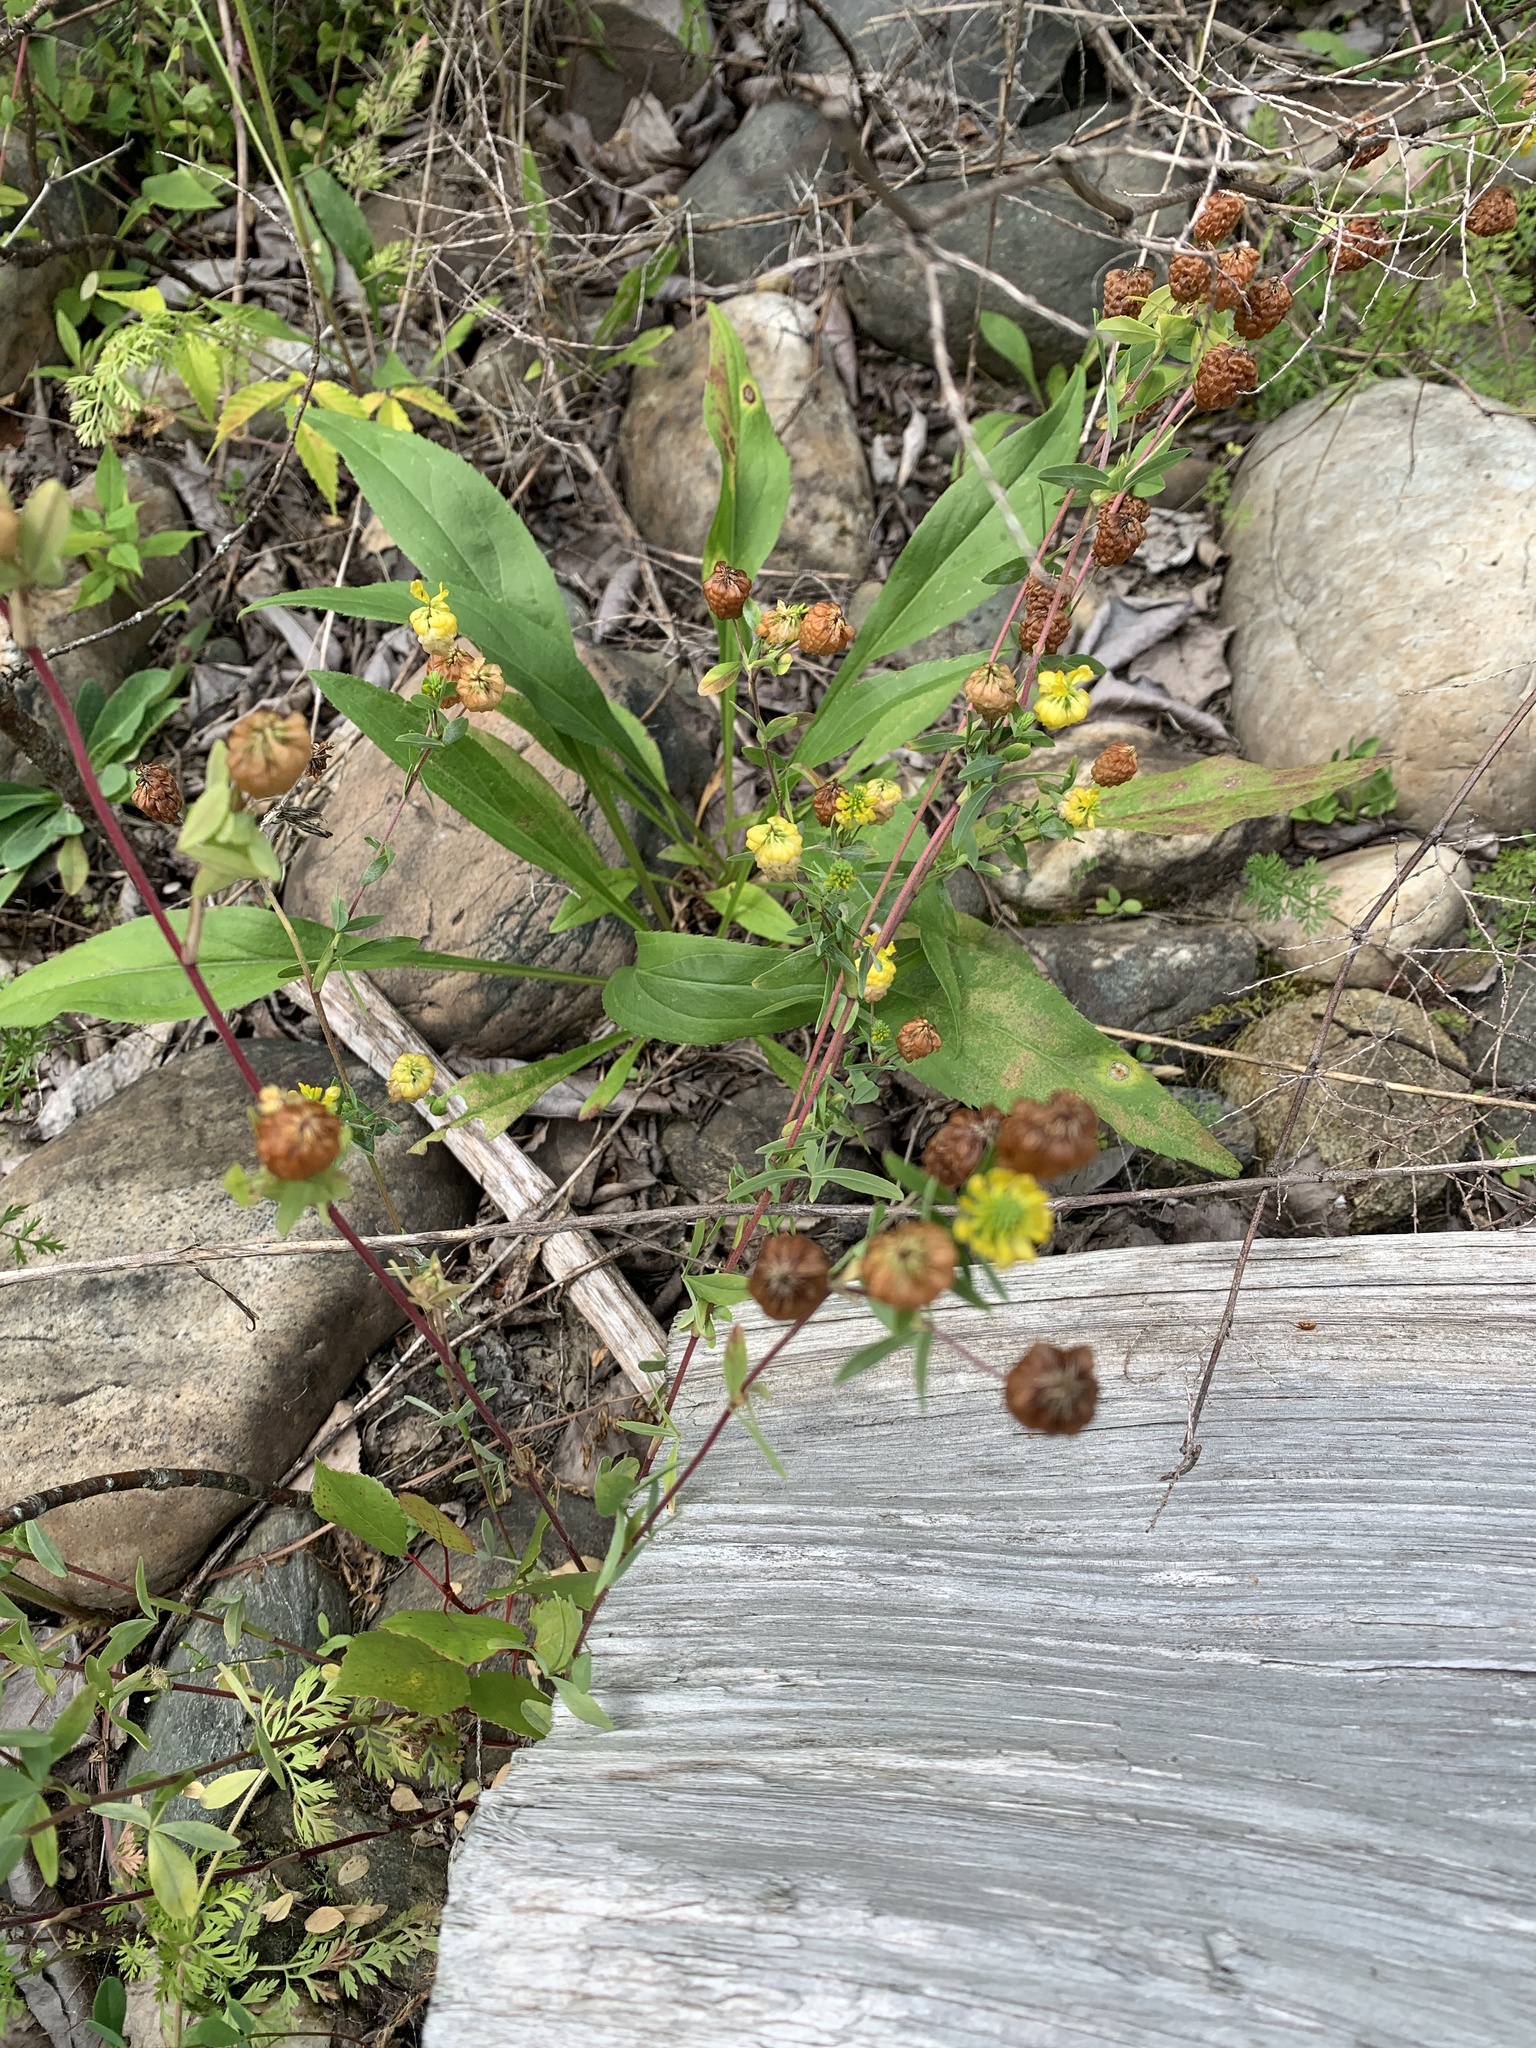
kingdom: Plantae
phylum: Tracheophyta
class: Magnoliopsida
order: Fabales
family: Fabaceae
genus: Trifolium
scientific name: Trifolium aureum
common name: Golden clover
